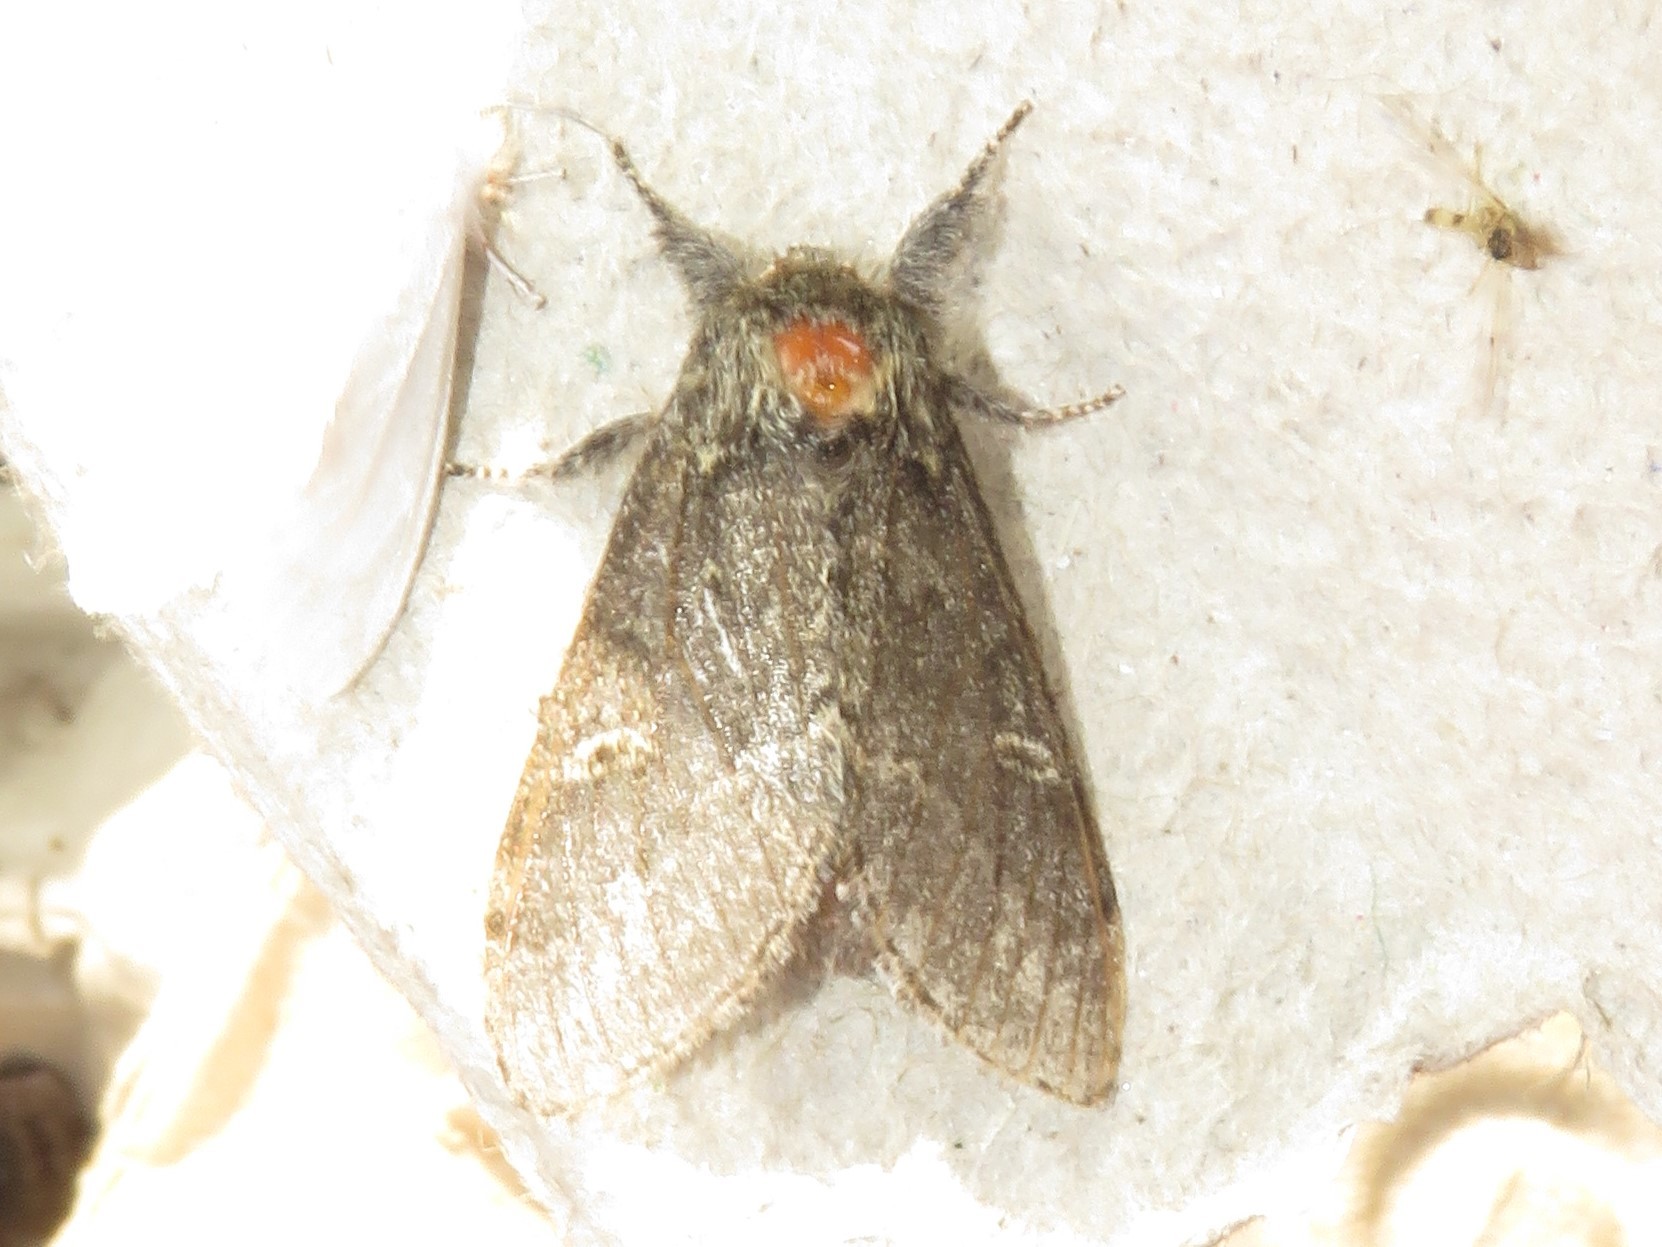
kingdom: Animalia
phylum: Arthropoda
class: Insecta
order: Lepidoptera
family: Notodontidae
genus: Notodonta
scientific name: Notodonta torva
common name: Large dark prominent
